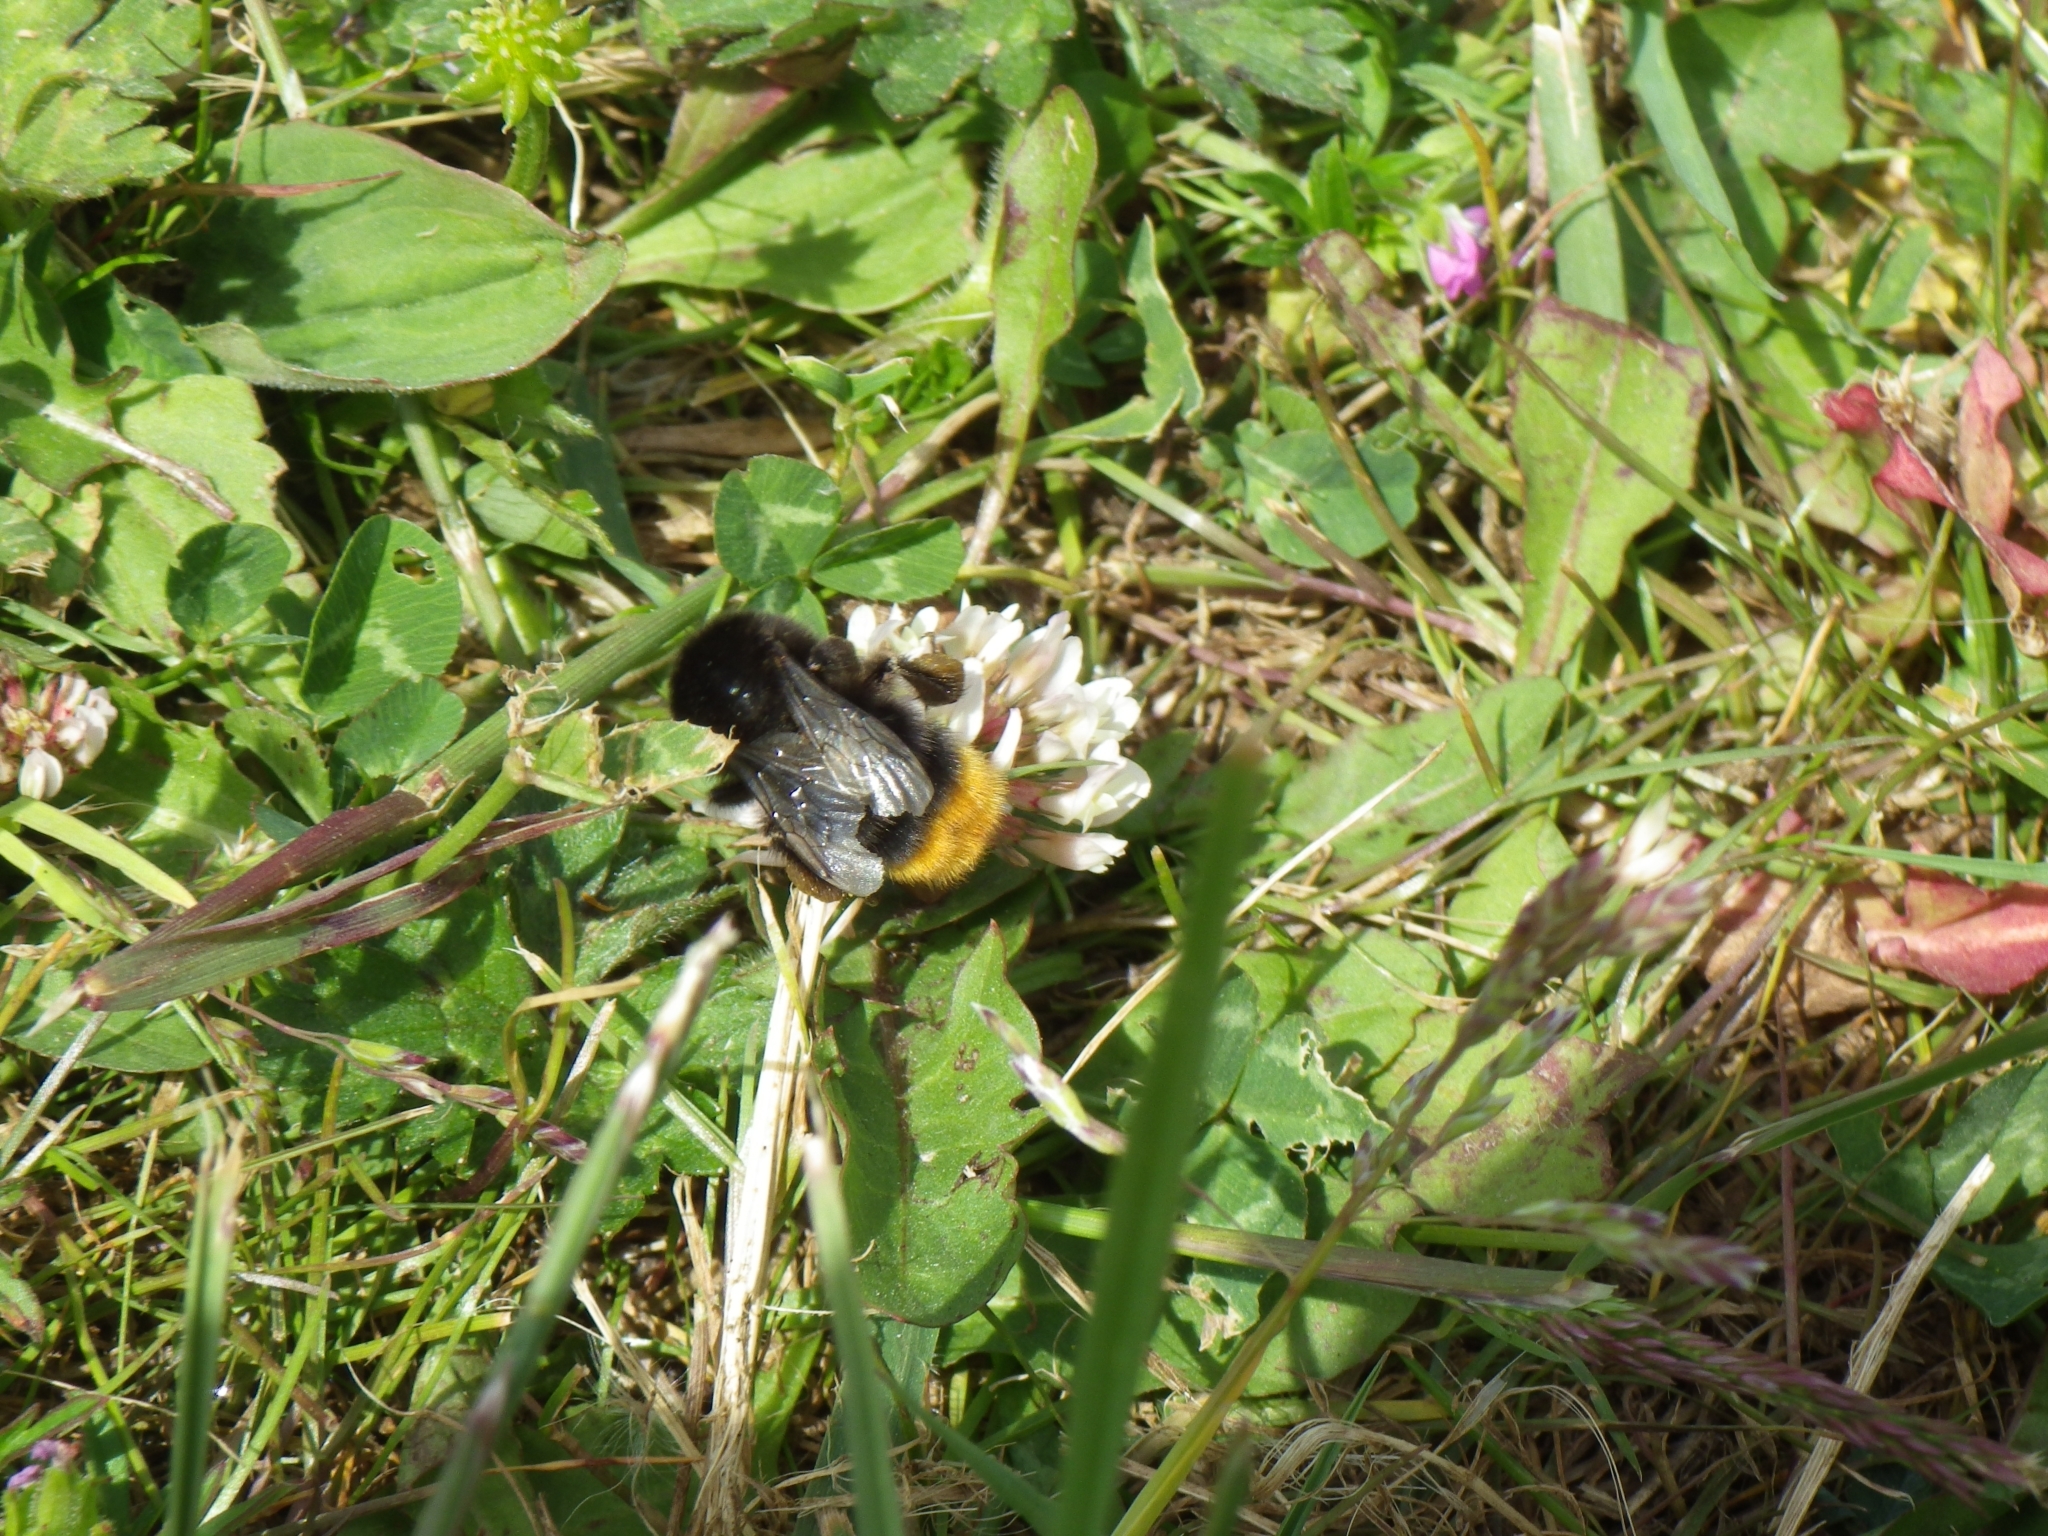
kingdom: Animalia
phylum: Arthropoda
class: Insecta
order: Hymenoptera
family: Apidae
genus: Bombus
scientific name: Bombus lapidarius
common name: Large red-tailed humble-bee
